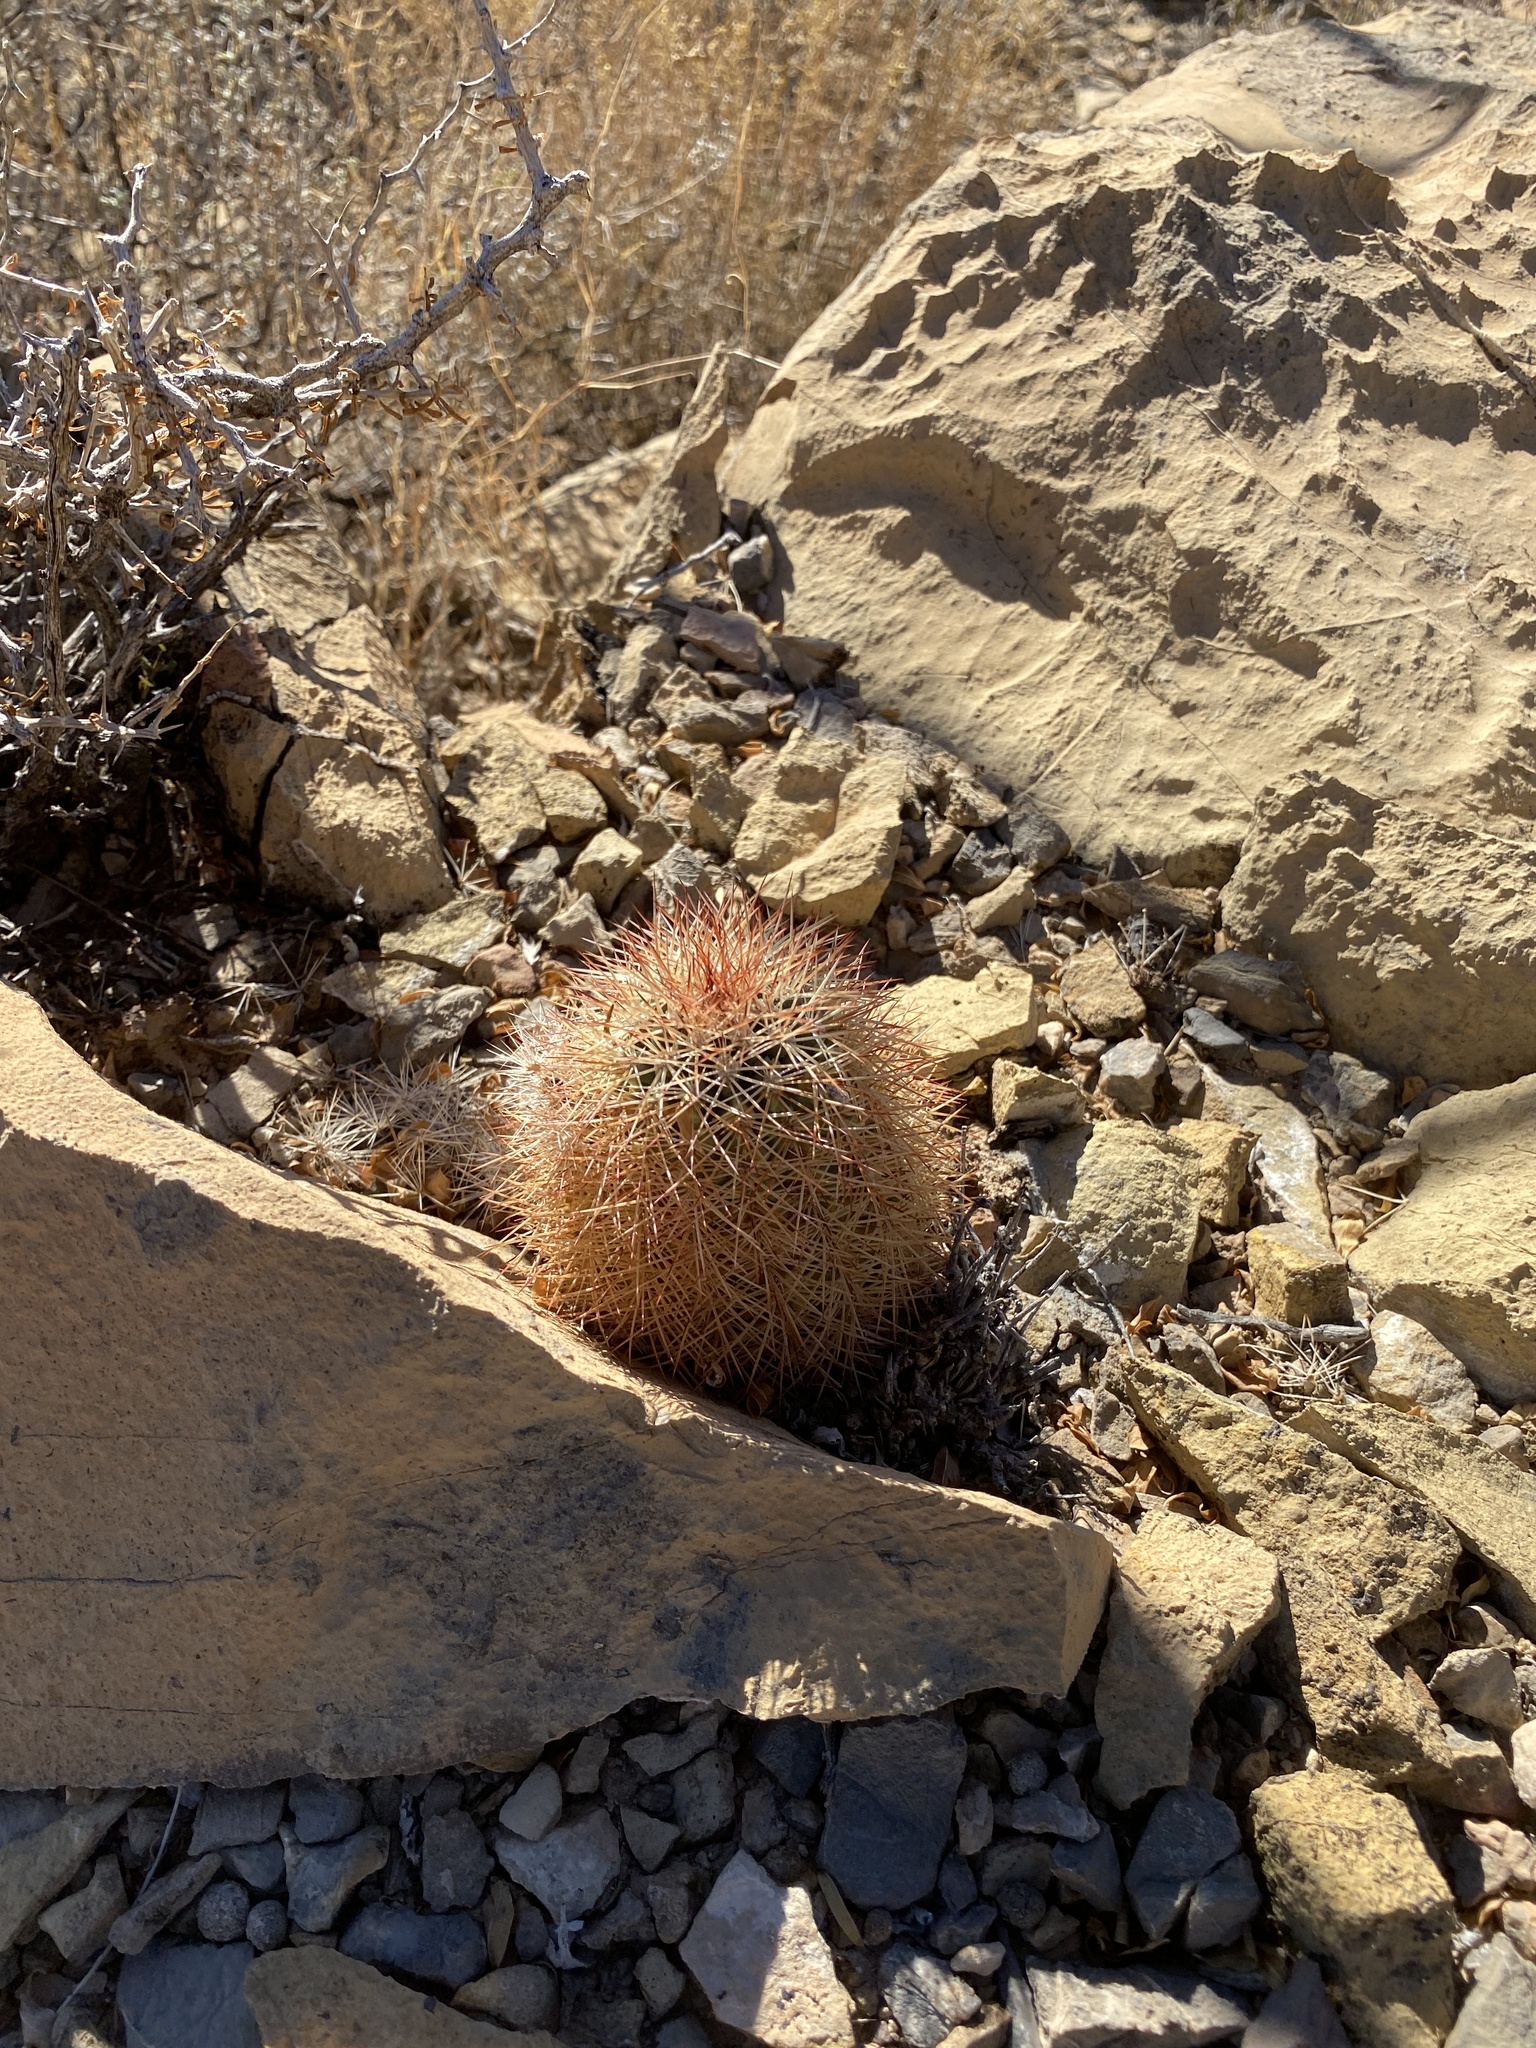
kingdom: Plantae
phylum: Tracheophyta
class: Magnoliopsida
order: Caryophyllales
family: Cactaceae
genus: Echinocereus
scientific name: Echinocereus dasyacanthus
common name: Spiny hedgehog cactus
